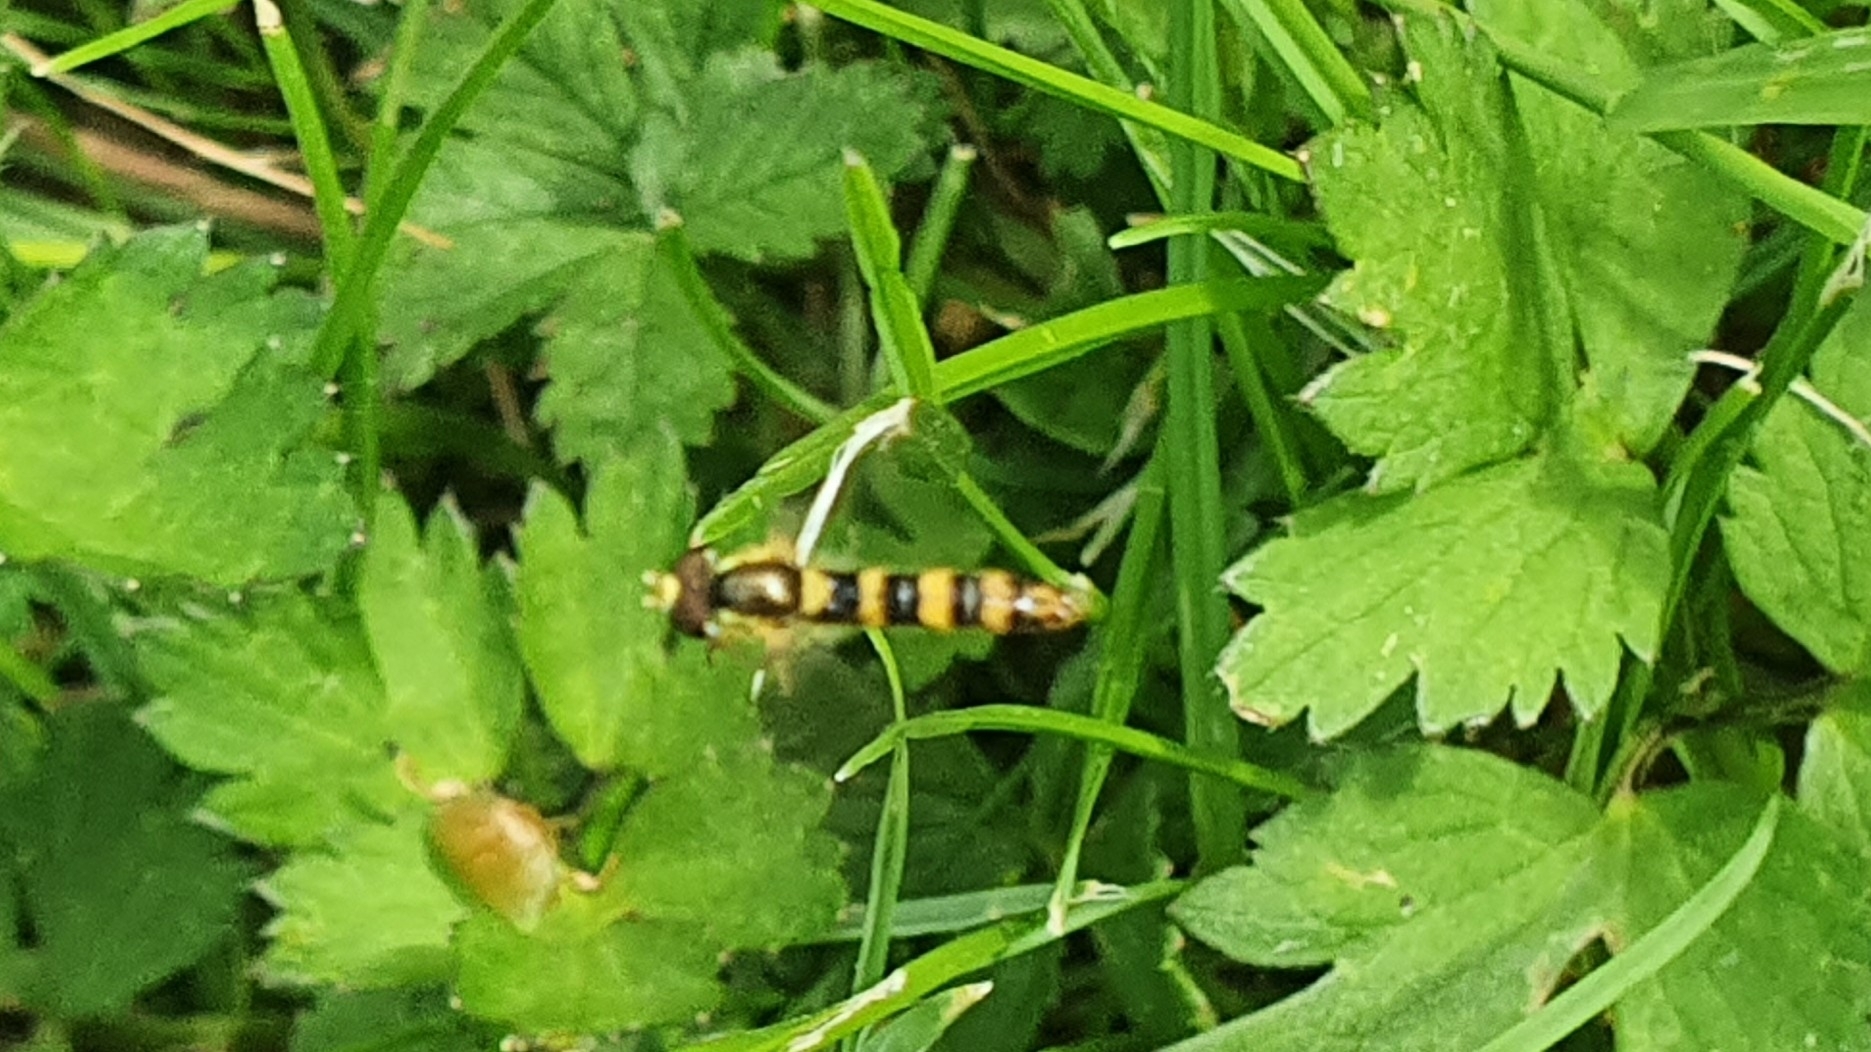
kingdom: Animalia
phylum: Arthropoda
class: Insecta
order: Diptera
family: Syrphidae
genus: Sphaerophoria
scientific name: Sphaerophoria scripta
